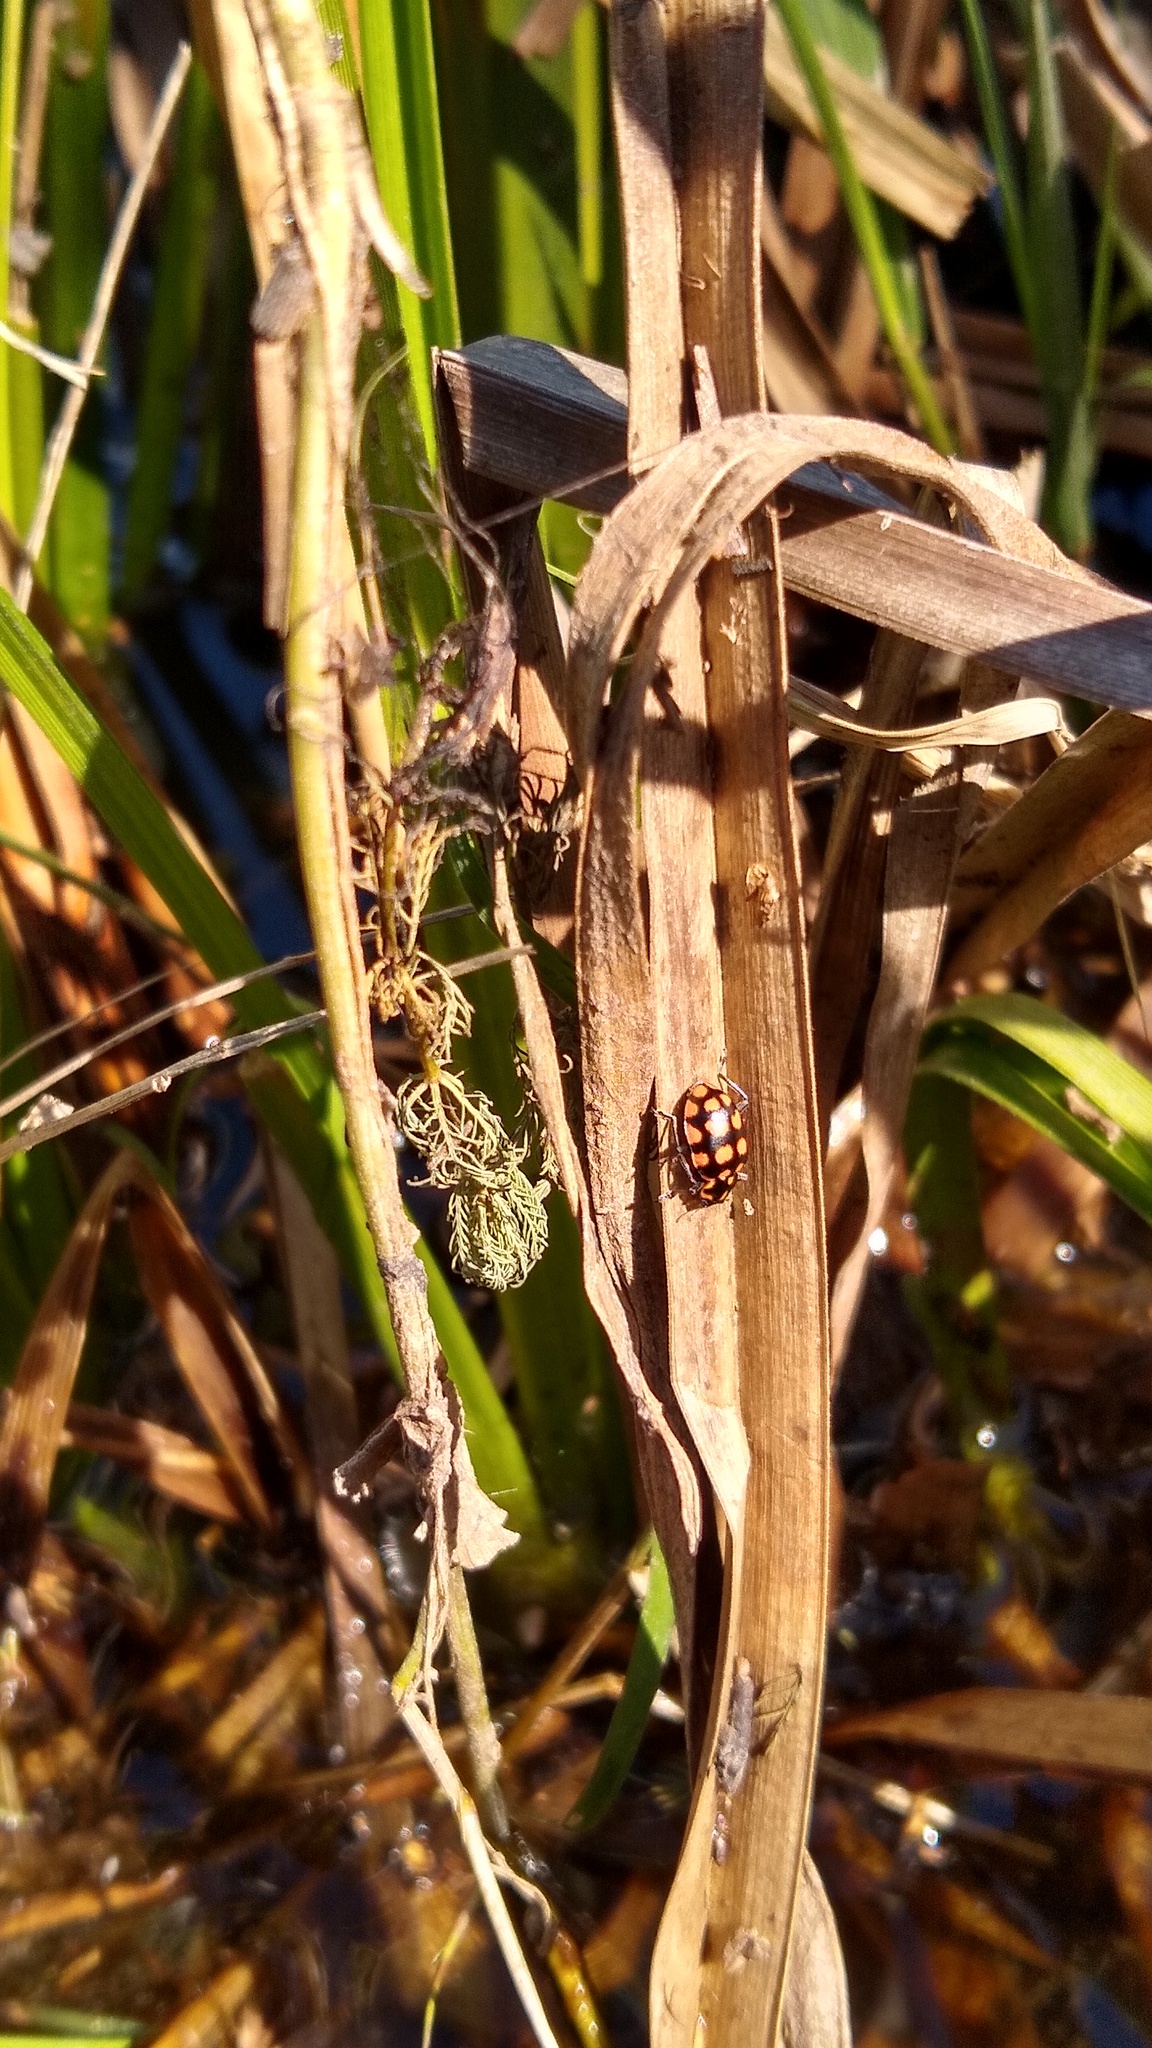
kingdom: Animalia
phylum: Arthropoda
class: Insecta
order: Coleoptera
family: Coccinellidae
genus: Coleomegilla
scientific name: Coleomegilla
